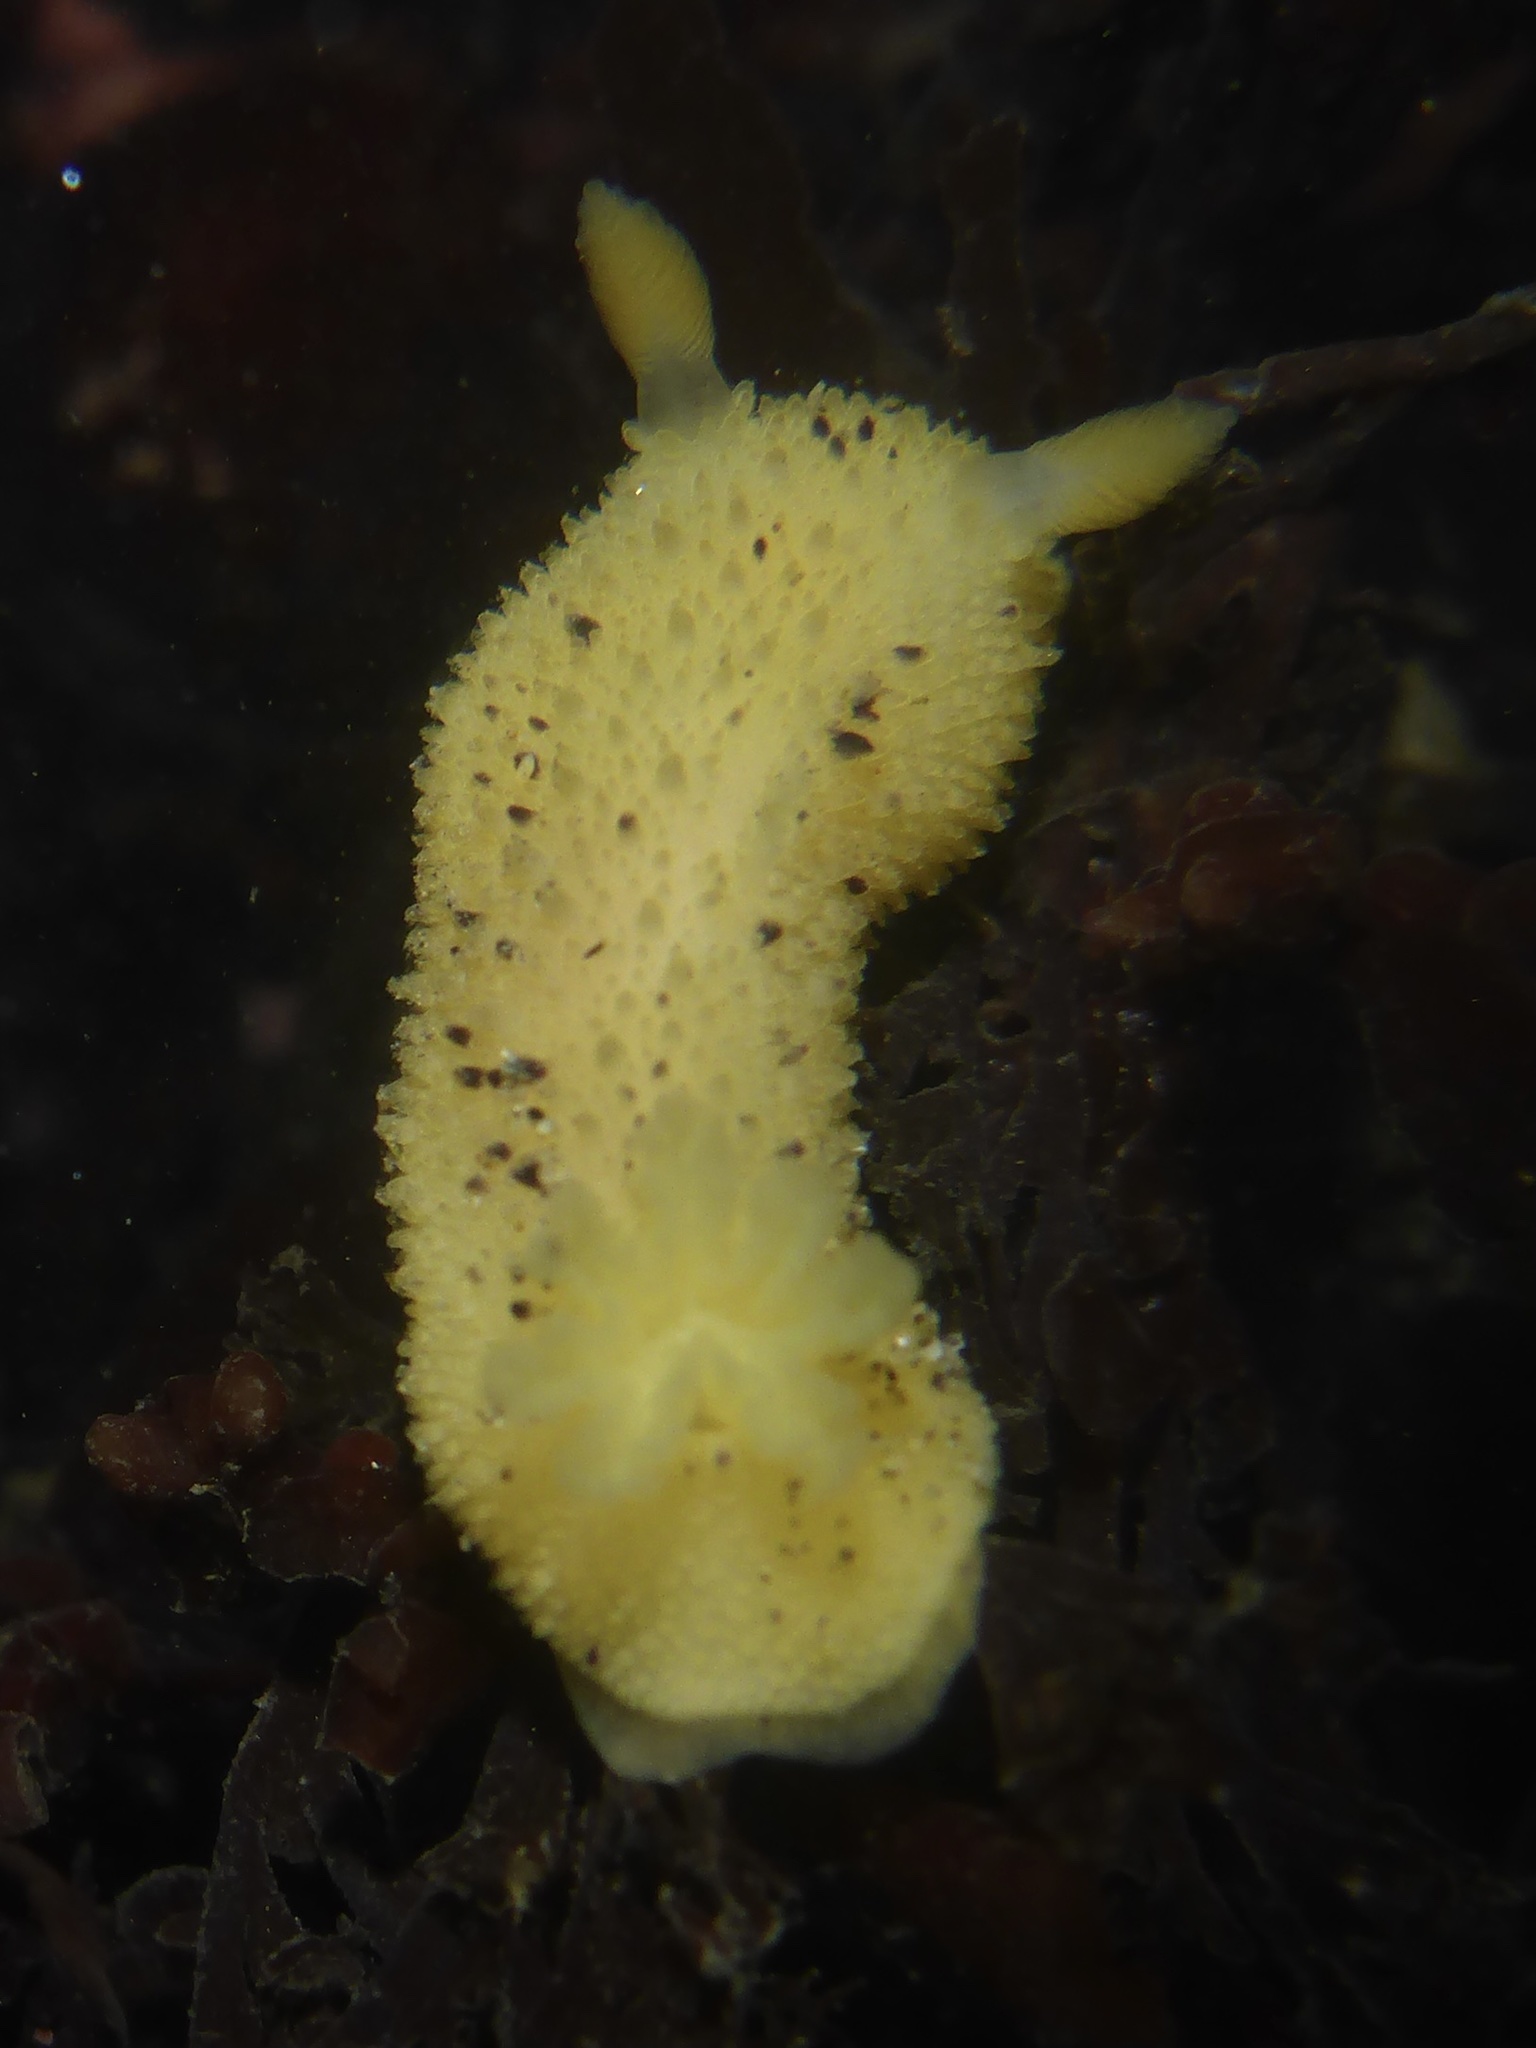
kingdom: Animalia
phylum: Mollusca
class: Gastropoda
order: Nudibranchia
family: Dorididae
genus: Doris
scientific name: Doris montereyensis
